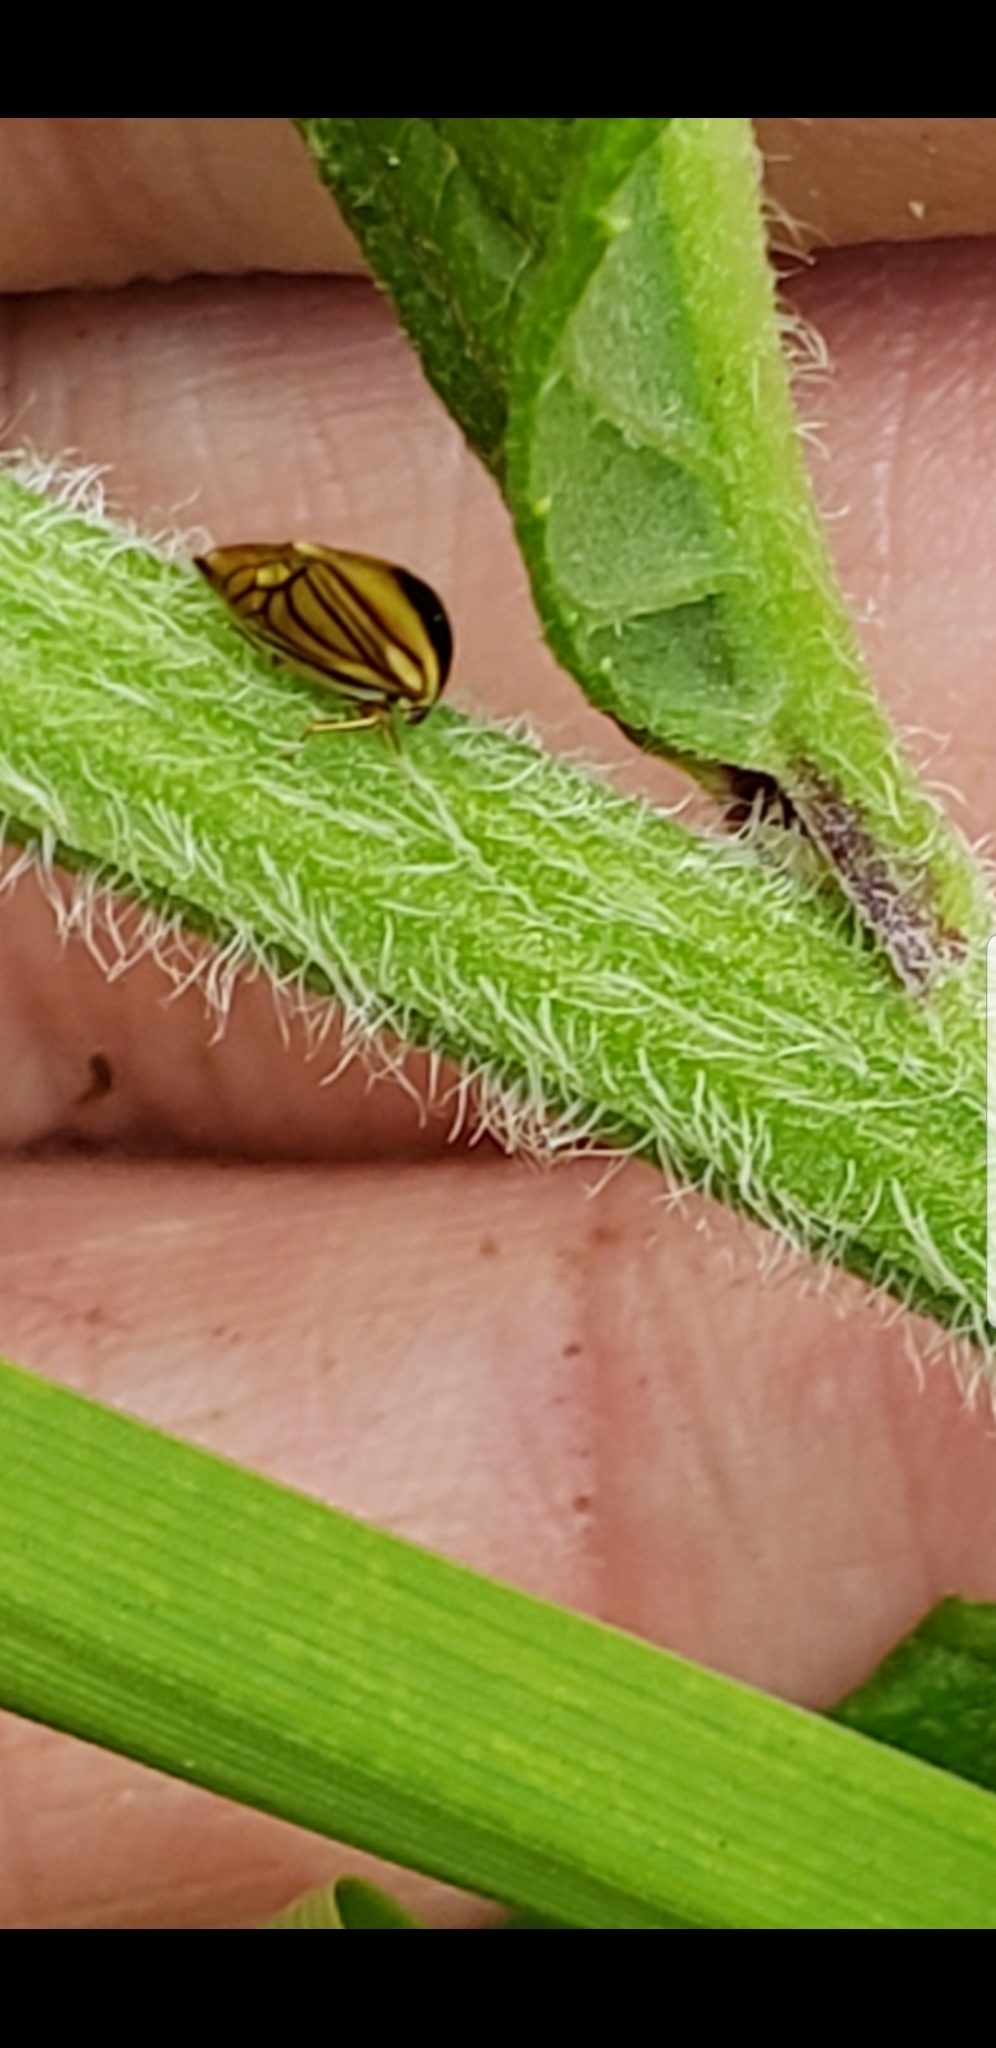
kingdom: Animalia
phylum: Arthropoda
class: Insecta
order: Hemiptera
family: Membracidae
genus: Acutalis
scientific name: Acutalis tartarea
